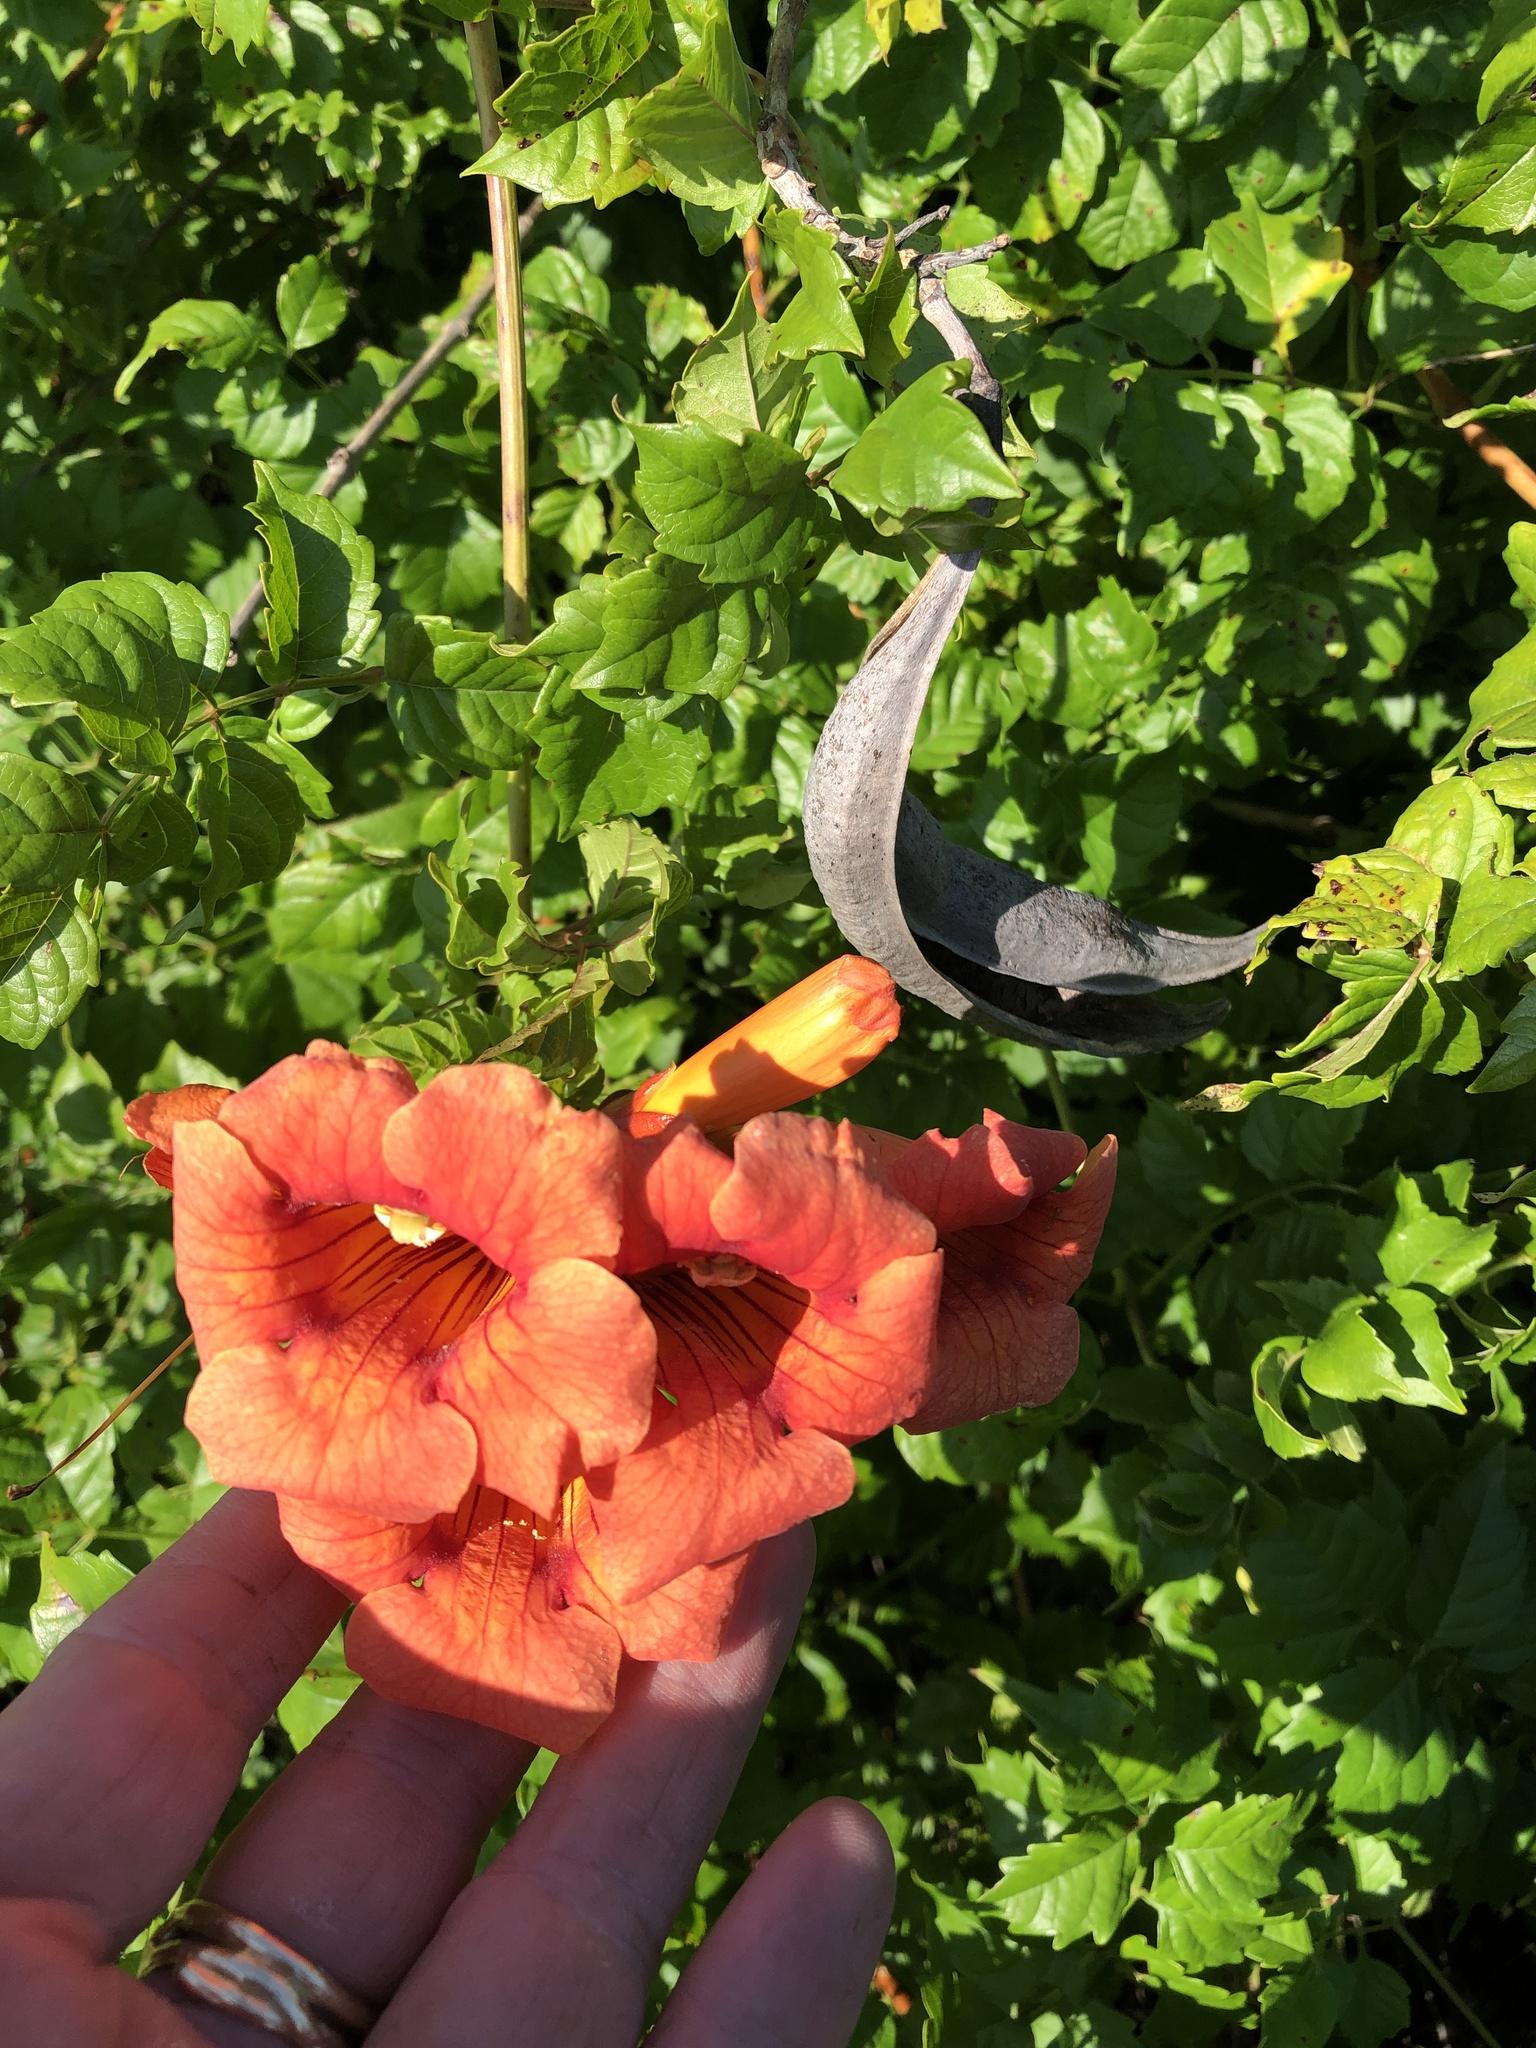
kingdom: Plantae
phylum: Tracheophyta
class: Magnoliopsida
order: Lamiales
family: Bignoniaceae
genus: Campsis
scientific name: Campsis radicans
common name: Trumpet-creeper
